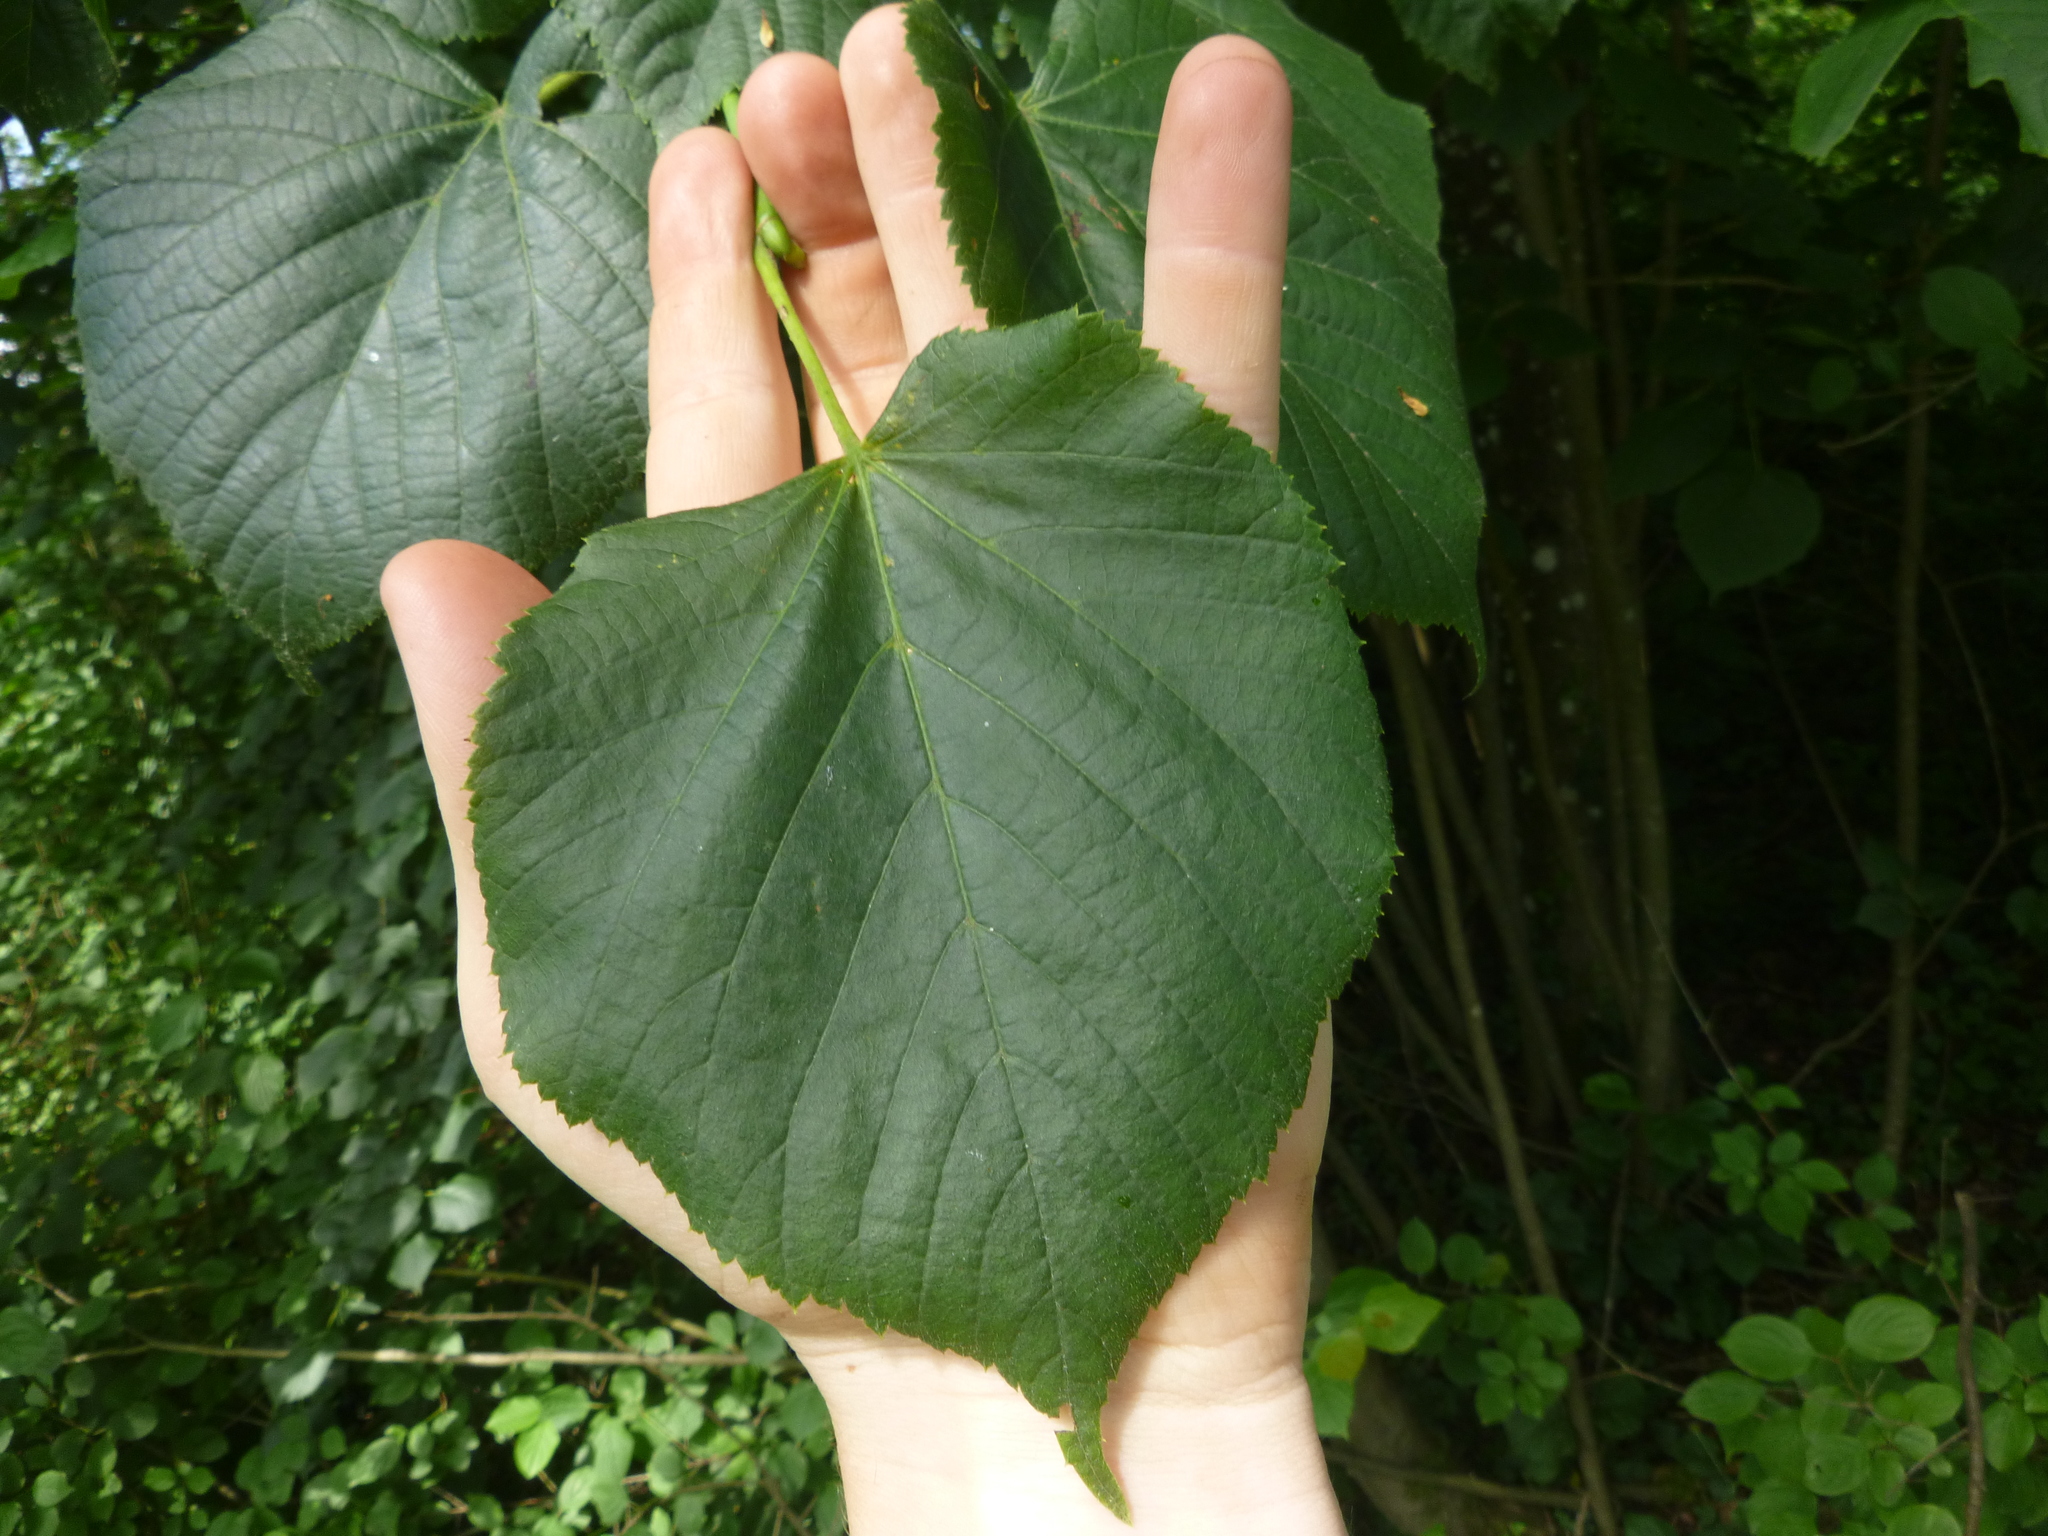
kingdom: Plantae
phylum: Tracheophyta
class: Magnoliopsida
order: Malvales
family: Malvaceae
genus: Tilia
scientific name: Tilia platyphyllos
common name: Large-leaved lime
